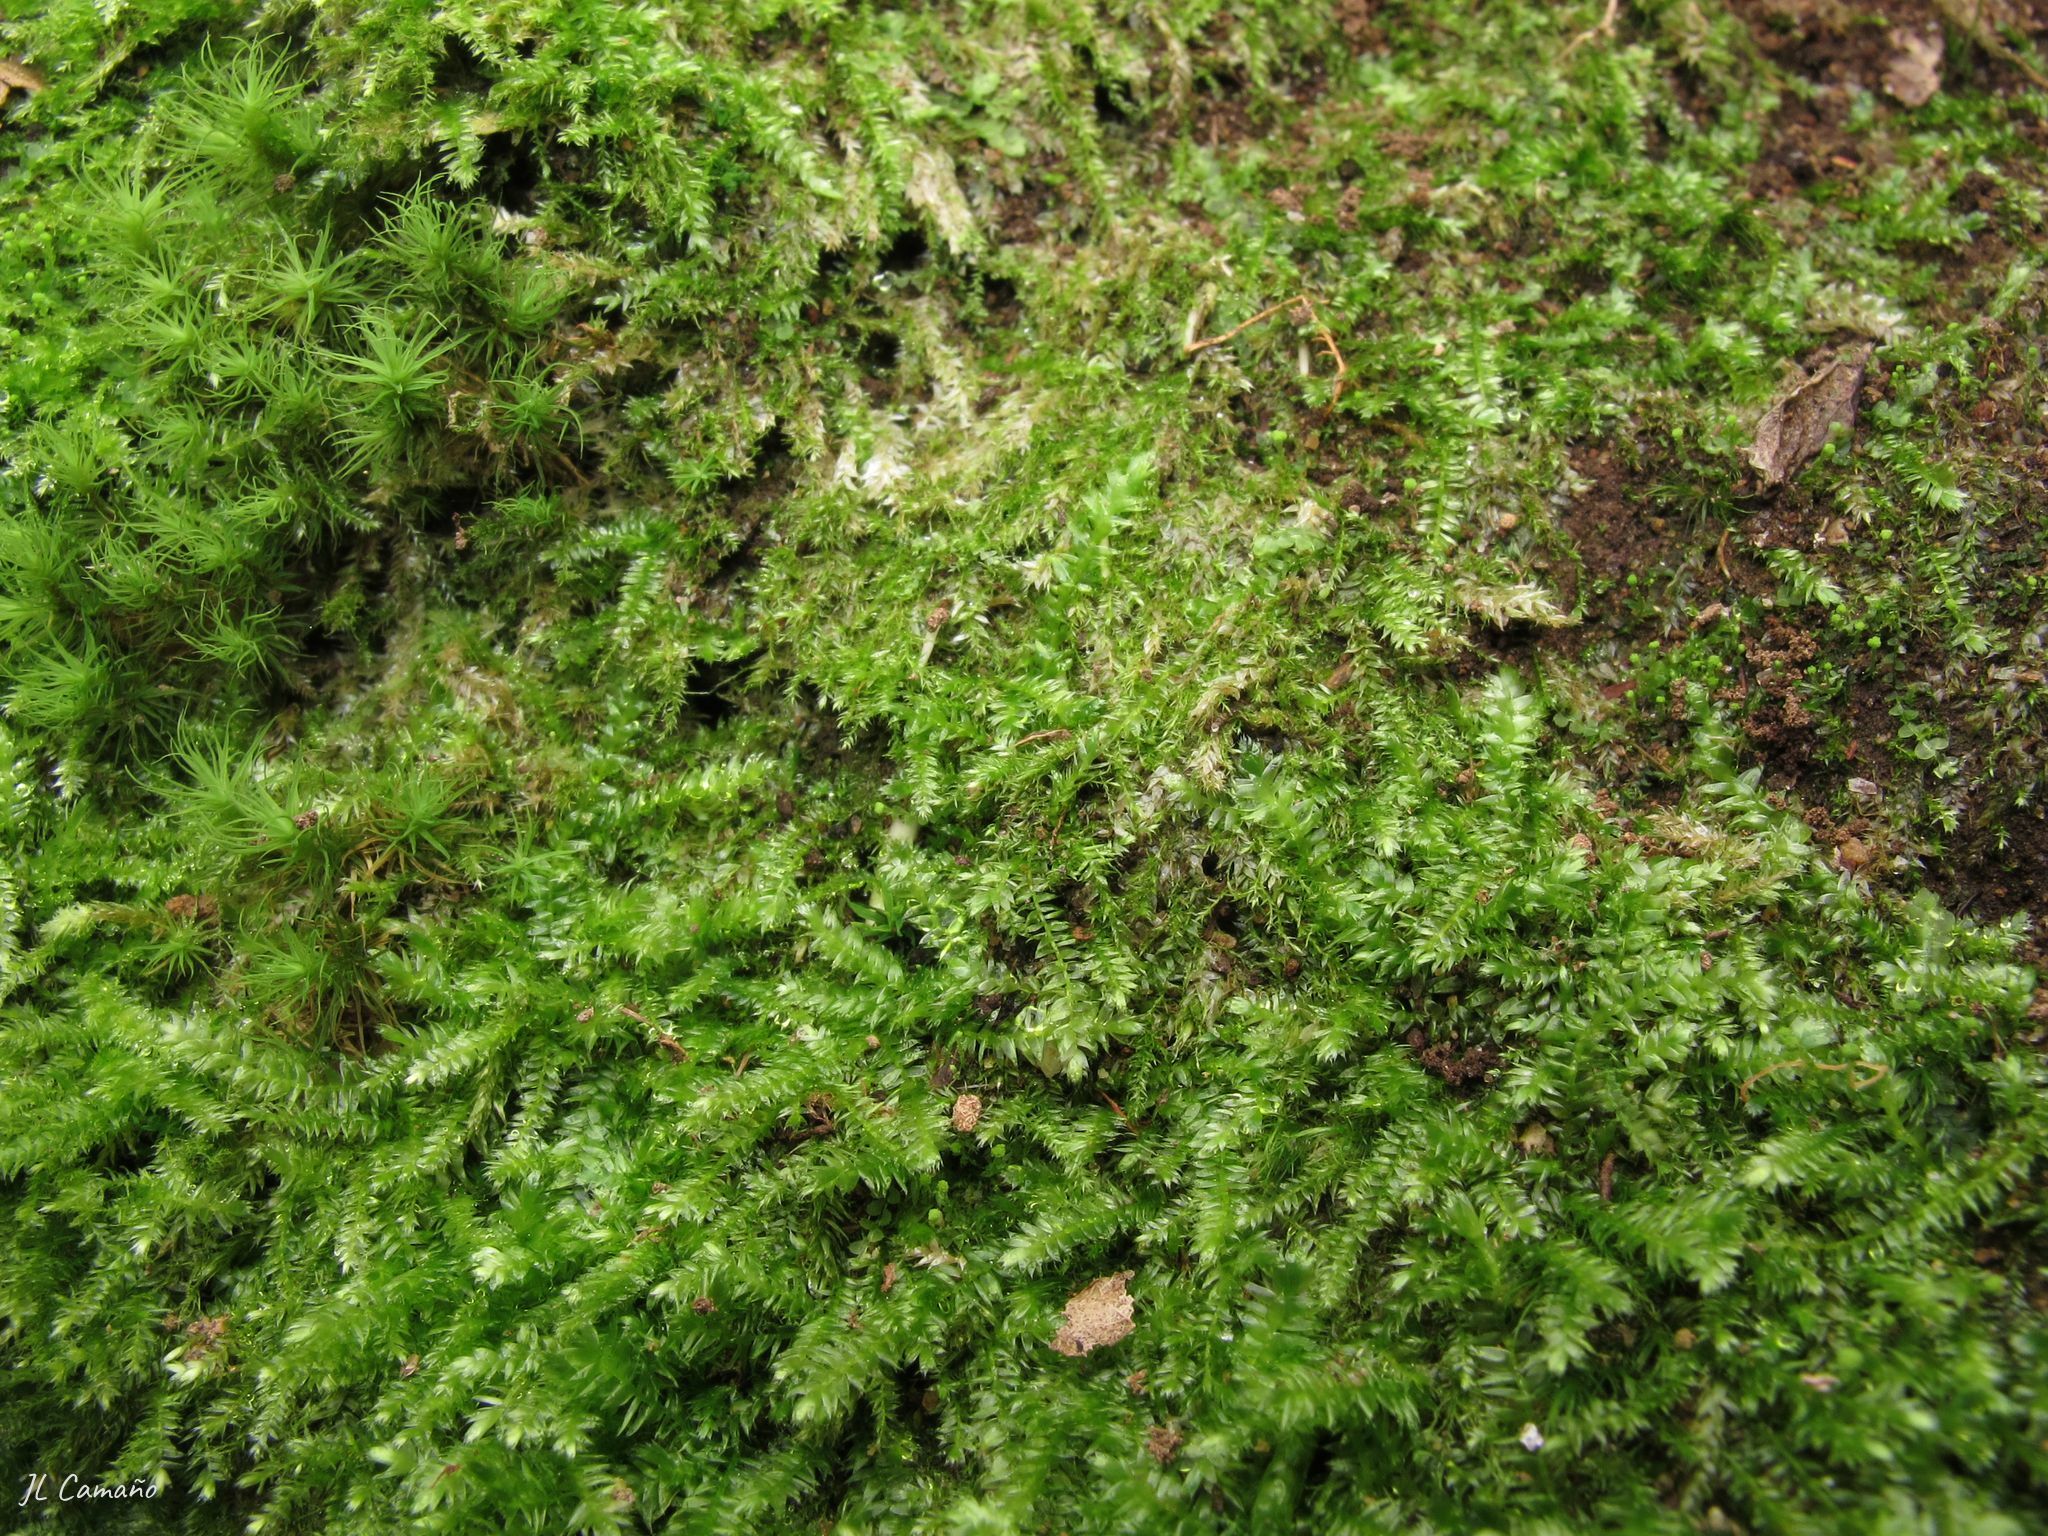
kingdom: Plantae
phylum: Bryophyta
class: Bryopsida
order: Hypnales
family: Plagiotheciaceae
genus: Pseudotaxiphyllum
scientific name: Pseudotaxiphyllum elegans
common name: Elegant silk moss
